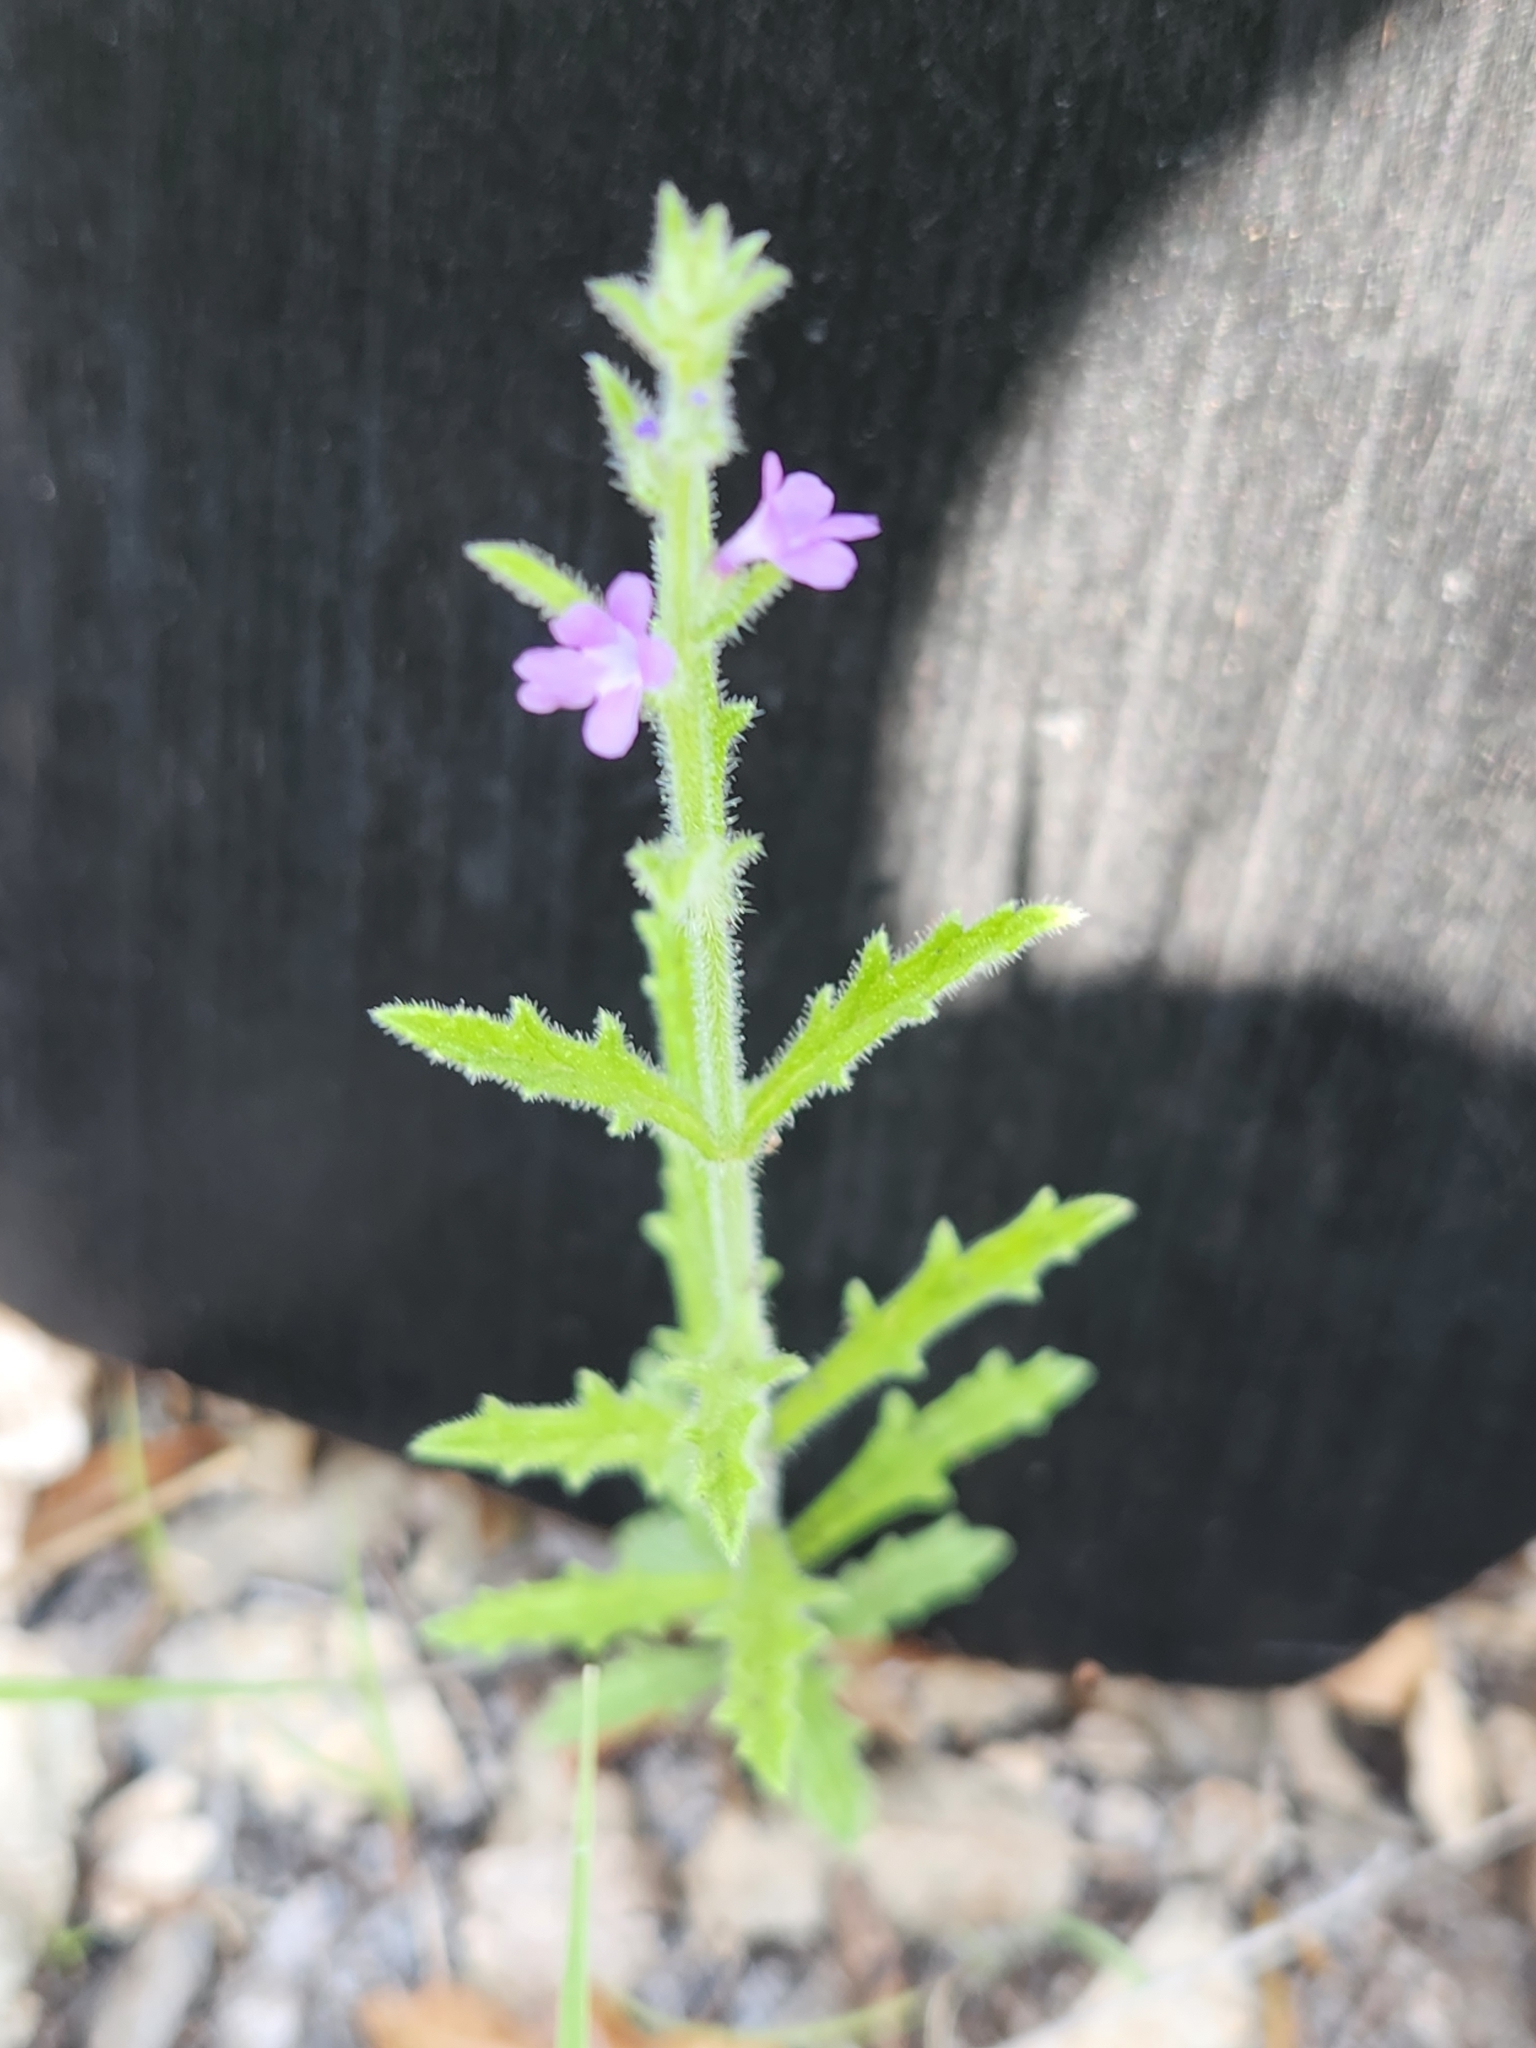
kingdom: Plantae
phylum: Tracheophyta
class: Magnoliopsida
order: Lamiales
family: Verbenaceae
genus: Verbena
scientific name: Verbena canescens
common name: Gray vervain
